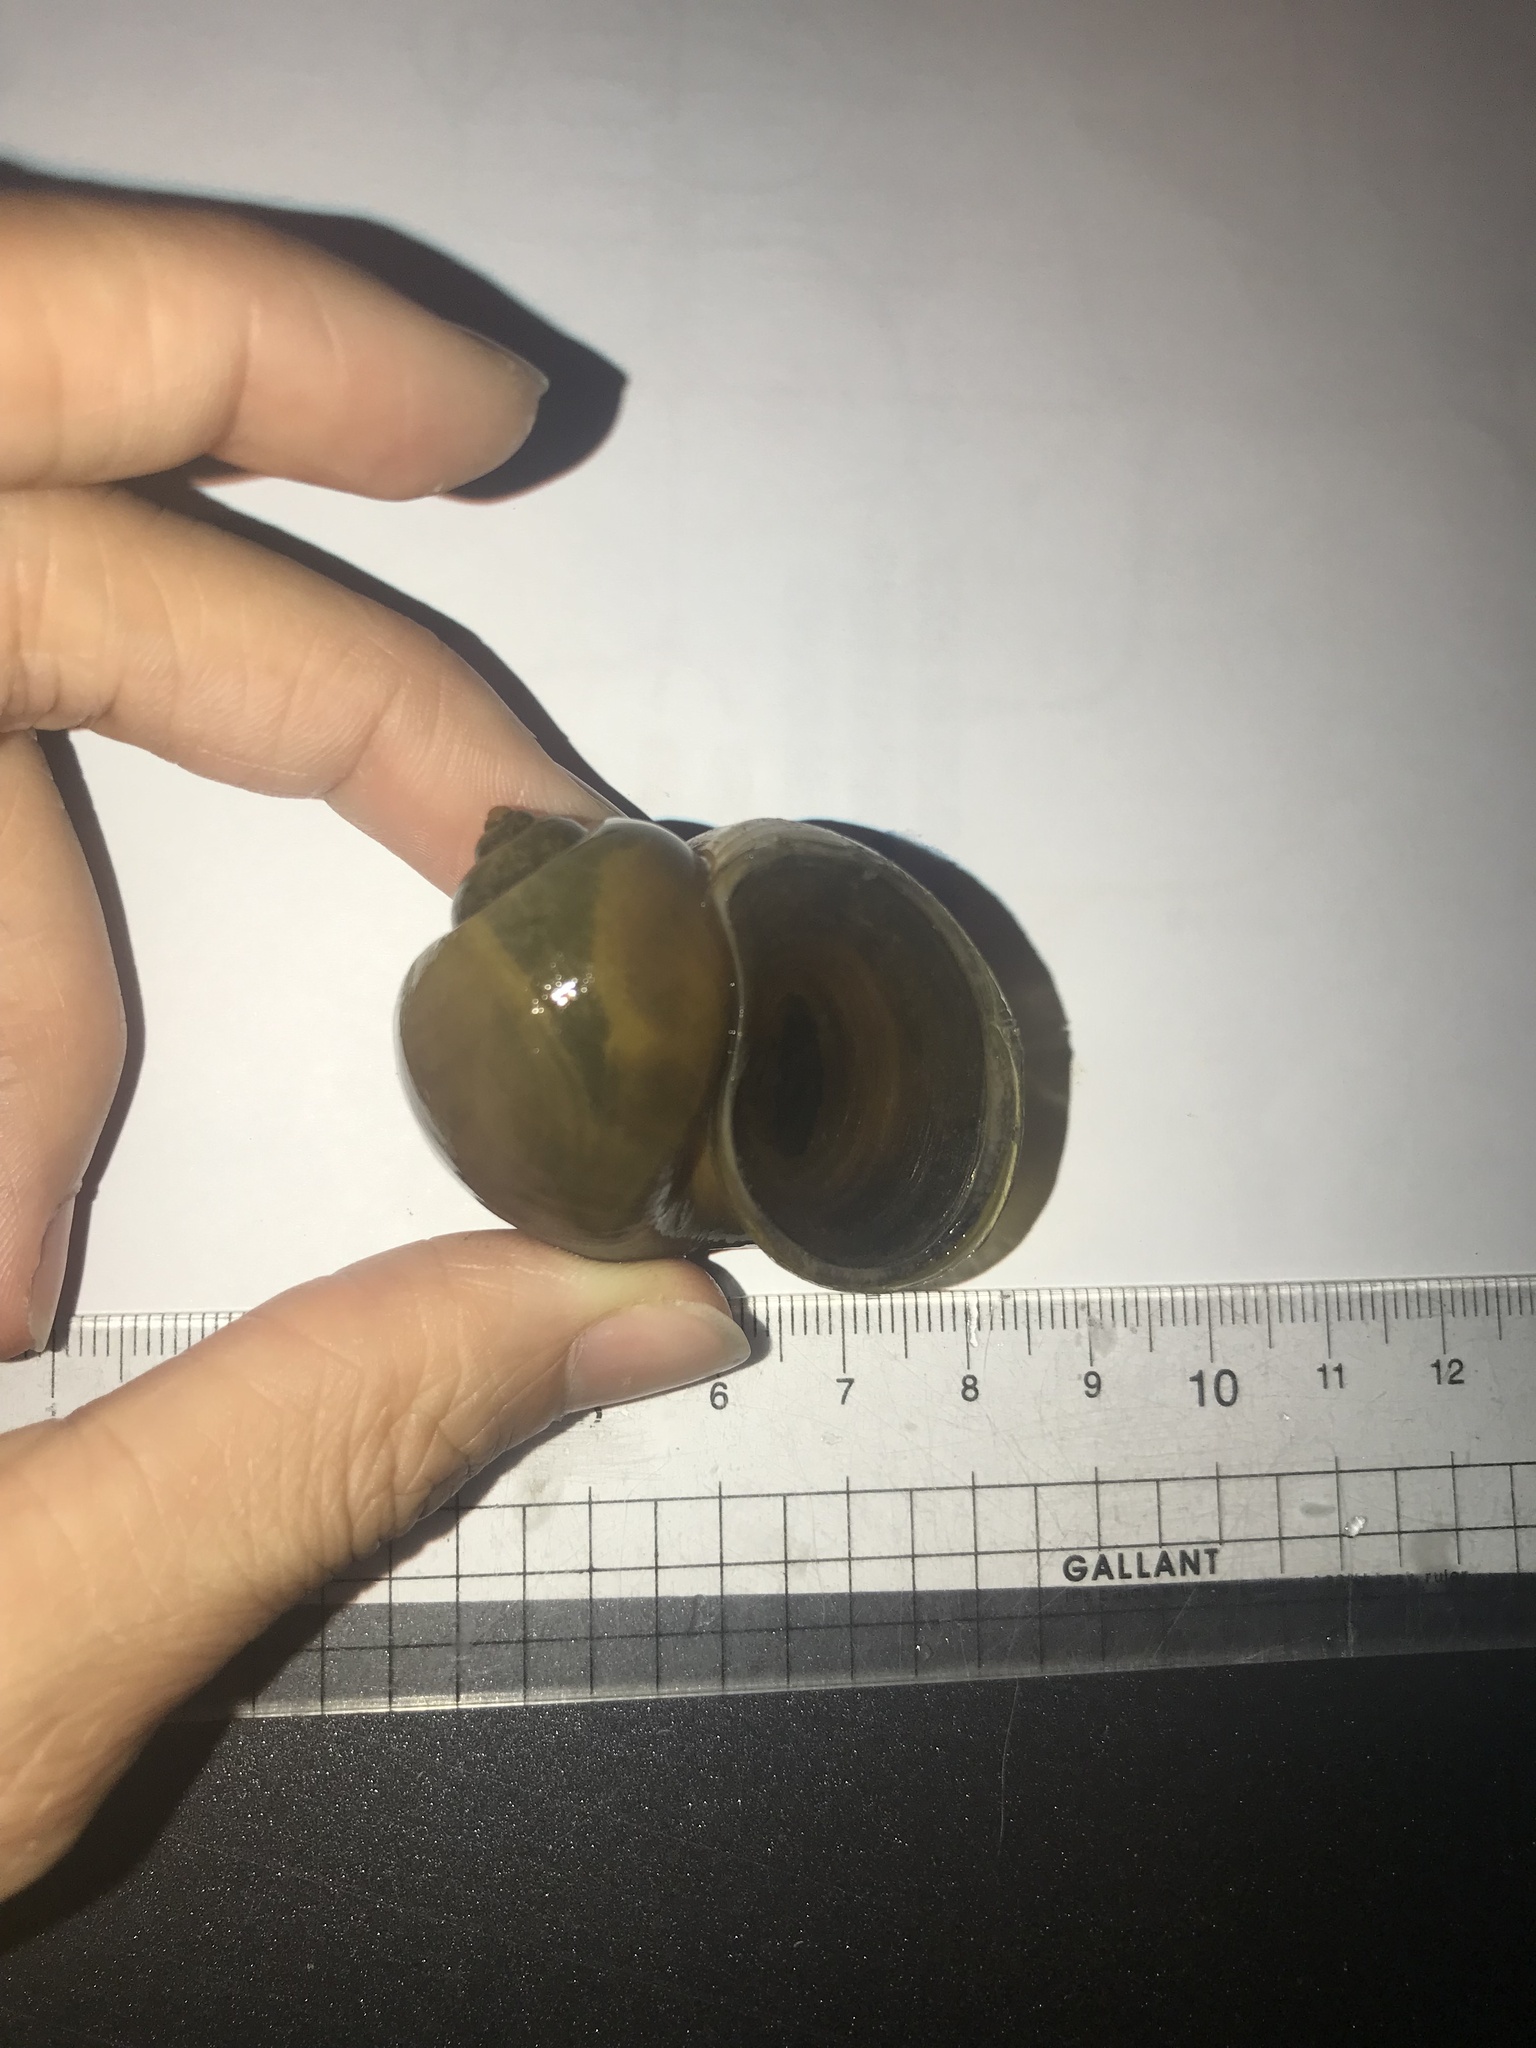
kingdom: Animalia
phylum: Mollusca
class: Gastropoda
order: Architaenioglossa
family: Ampullariidae
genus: Pomacea
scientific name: Pomacea canaliculata
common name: Channeled applesnail
